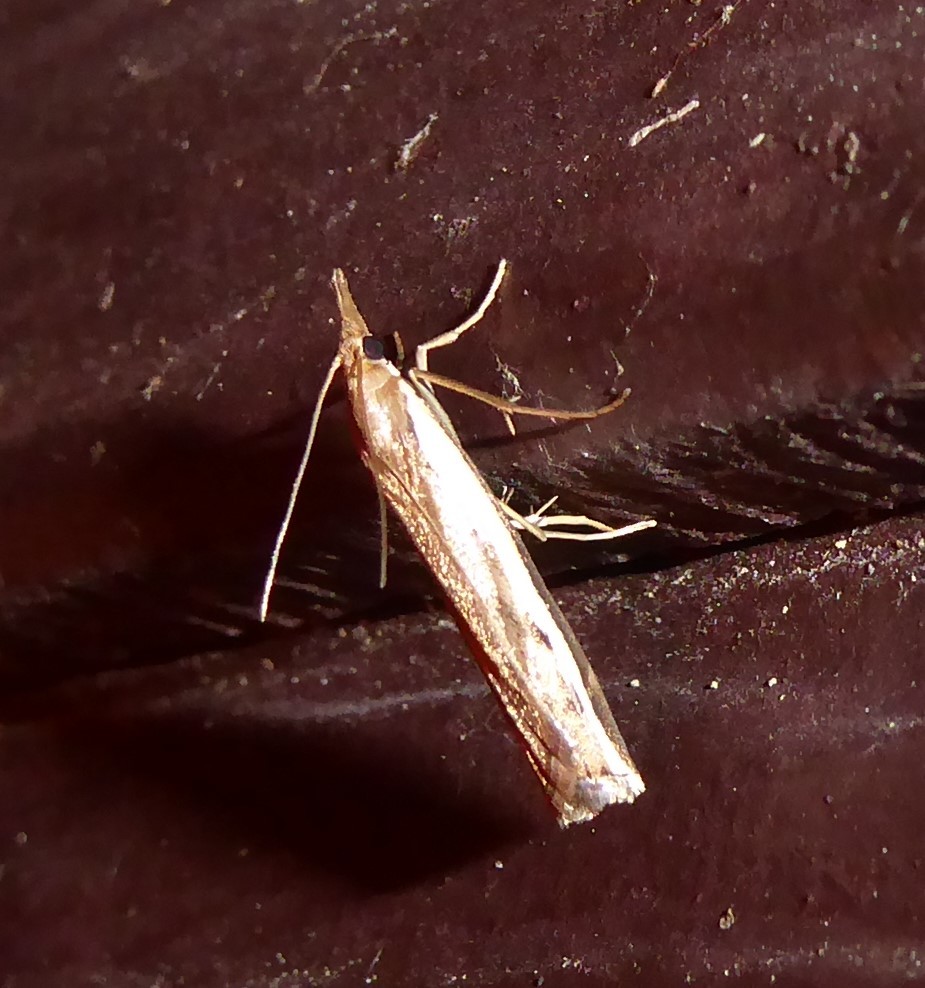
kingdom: Animalia
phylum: Arthropoda
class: Insecta
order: Lepidoptera
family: Crambidae
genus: Orocrambus
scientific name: Orocrambus flexuosellus
